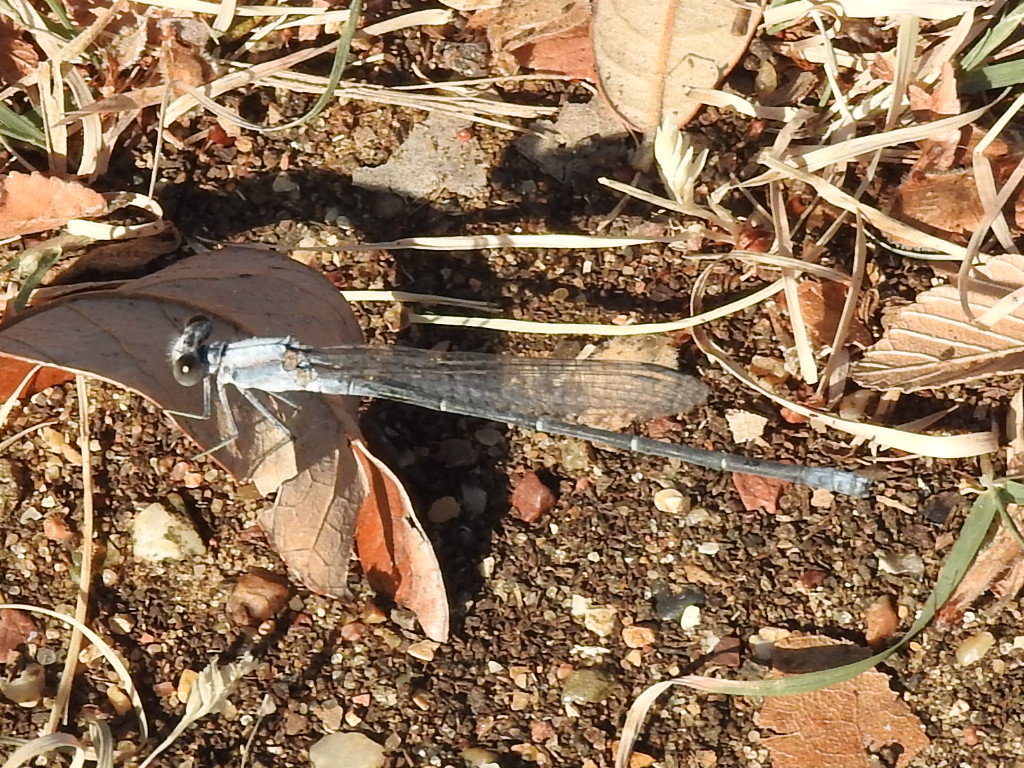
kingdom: Animalia
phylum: Arthropoda
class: Insecta
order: Odonata
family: Coenagrionidae
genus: Argia
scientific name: Argia moesta
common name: Powdered dancer
